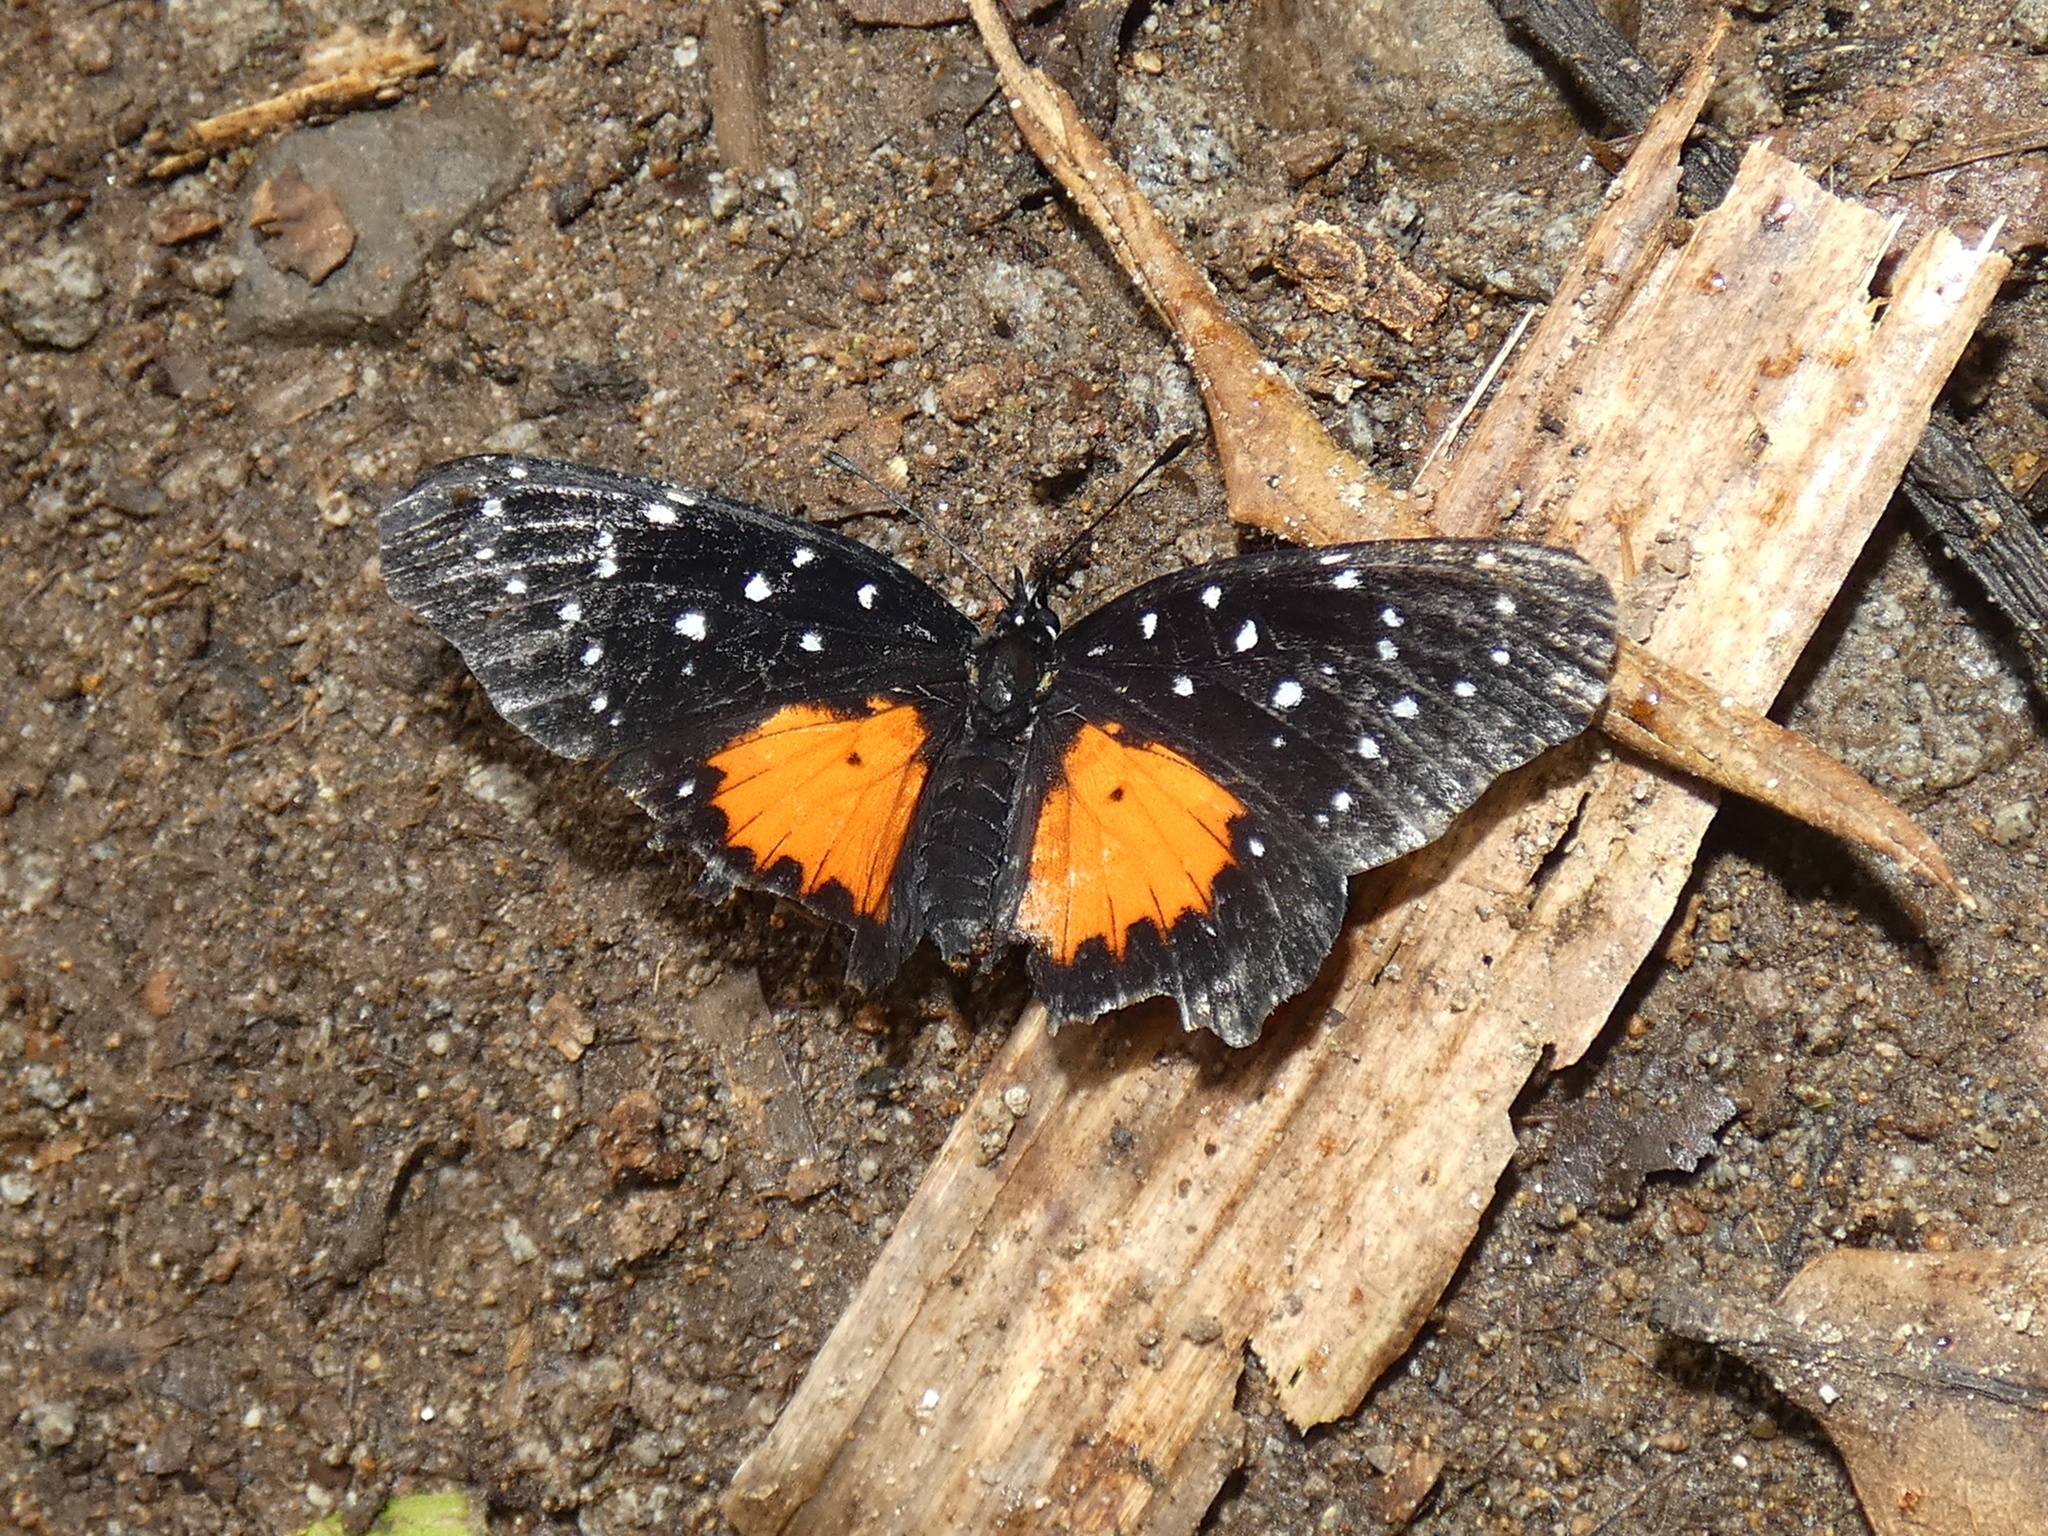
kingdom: Animalia
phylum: Arthropoda
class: Insecta
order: Lepidoptera
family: Nymphalidae
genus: Chlosyne
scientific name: Chlosyne janais
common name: Crimson patch
